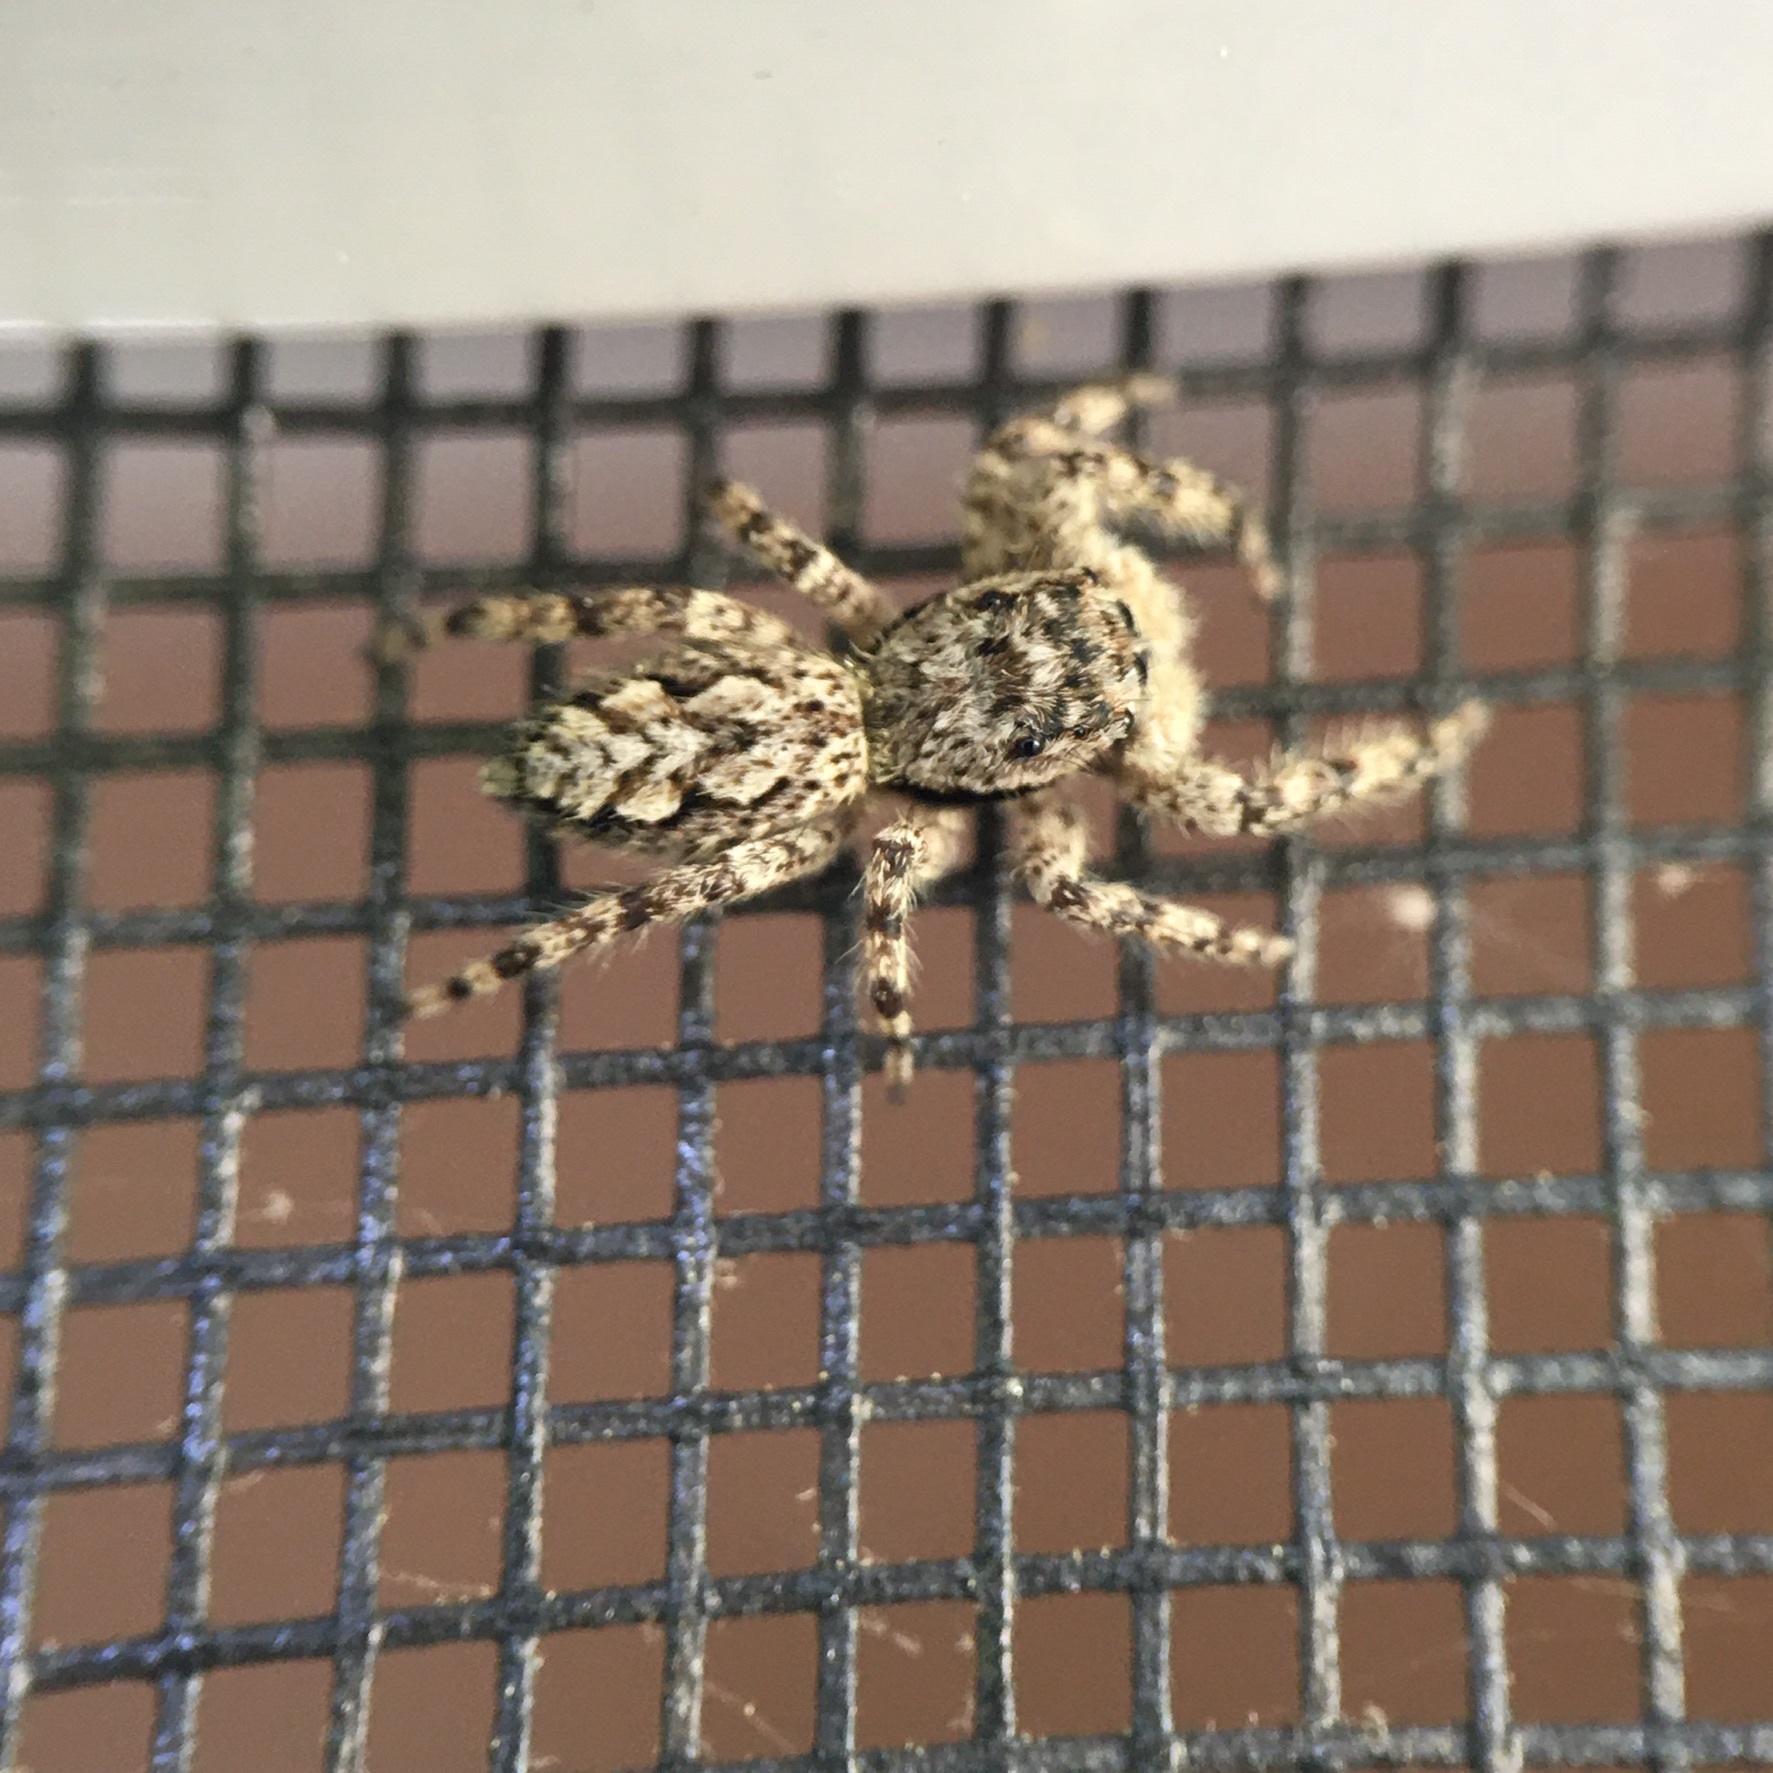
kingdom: Animalia
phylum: Arthropoda
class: Arachnida
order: Araneae
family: Salticidae
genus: Platycryptus
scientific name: Platycryptus undatus
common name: Tan jumping spider
